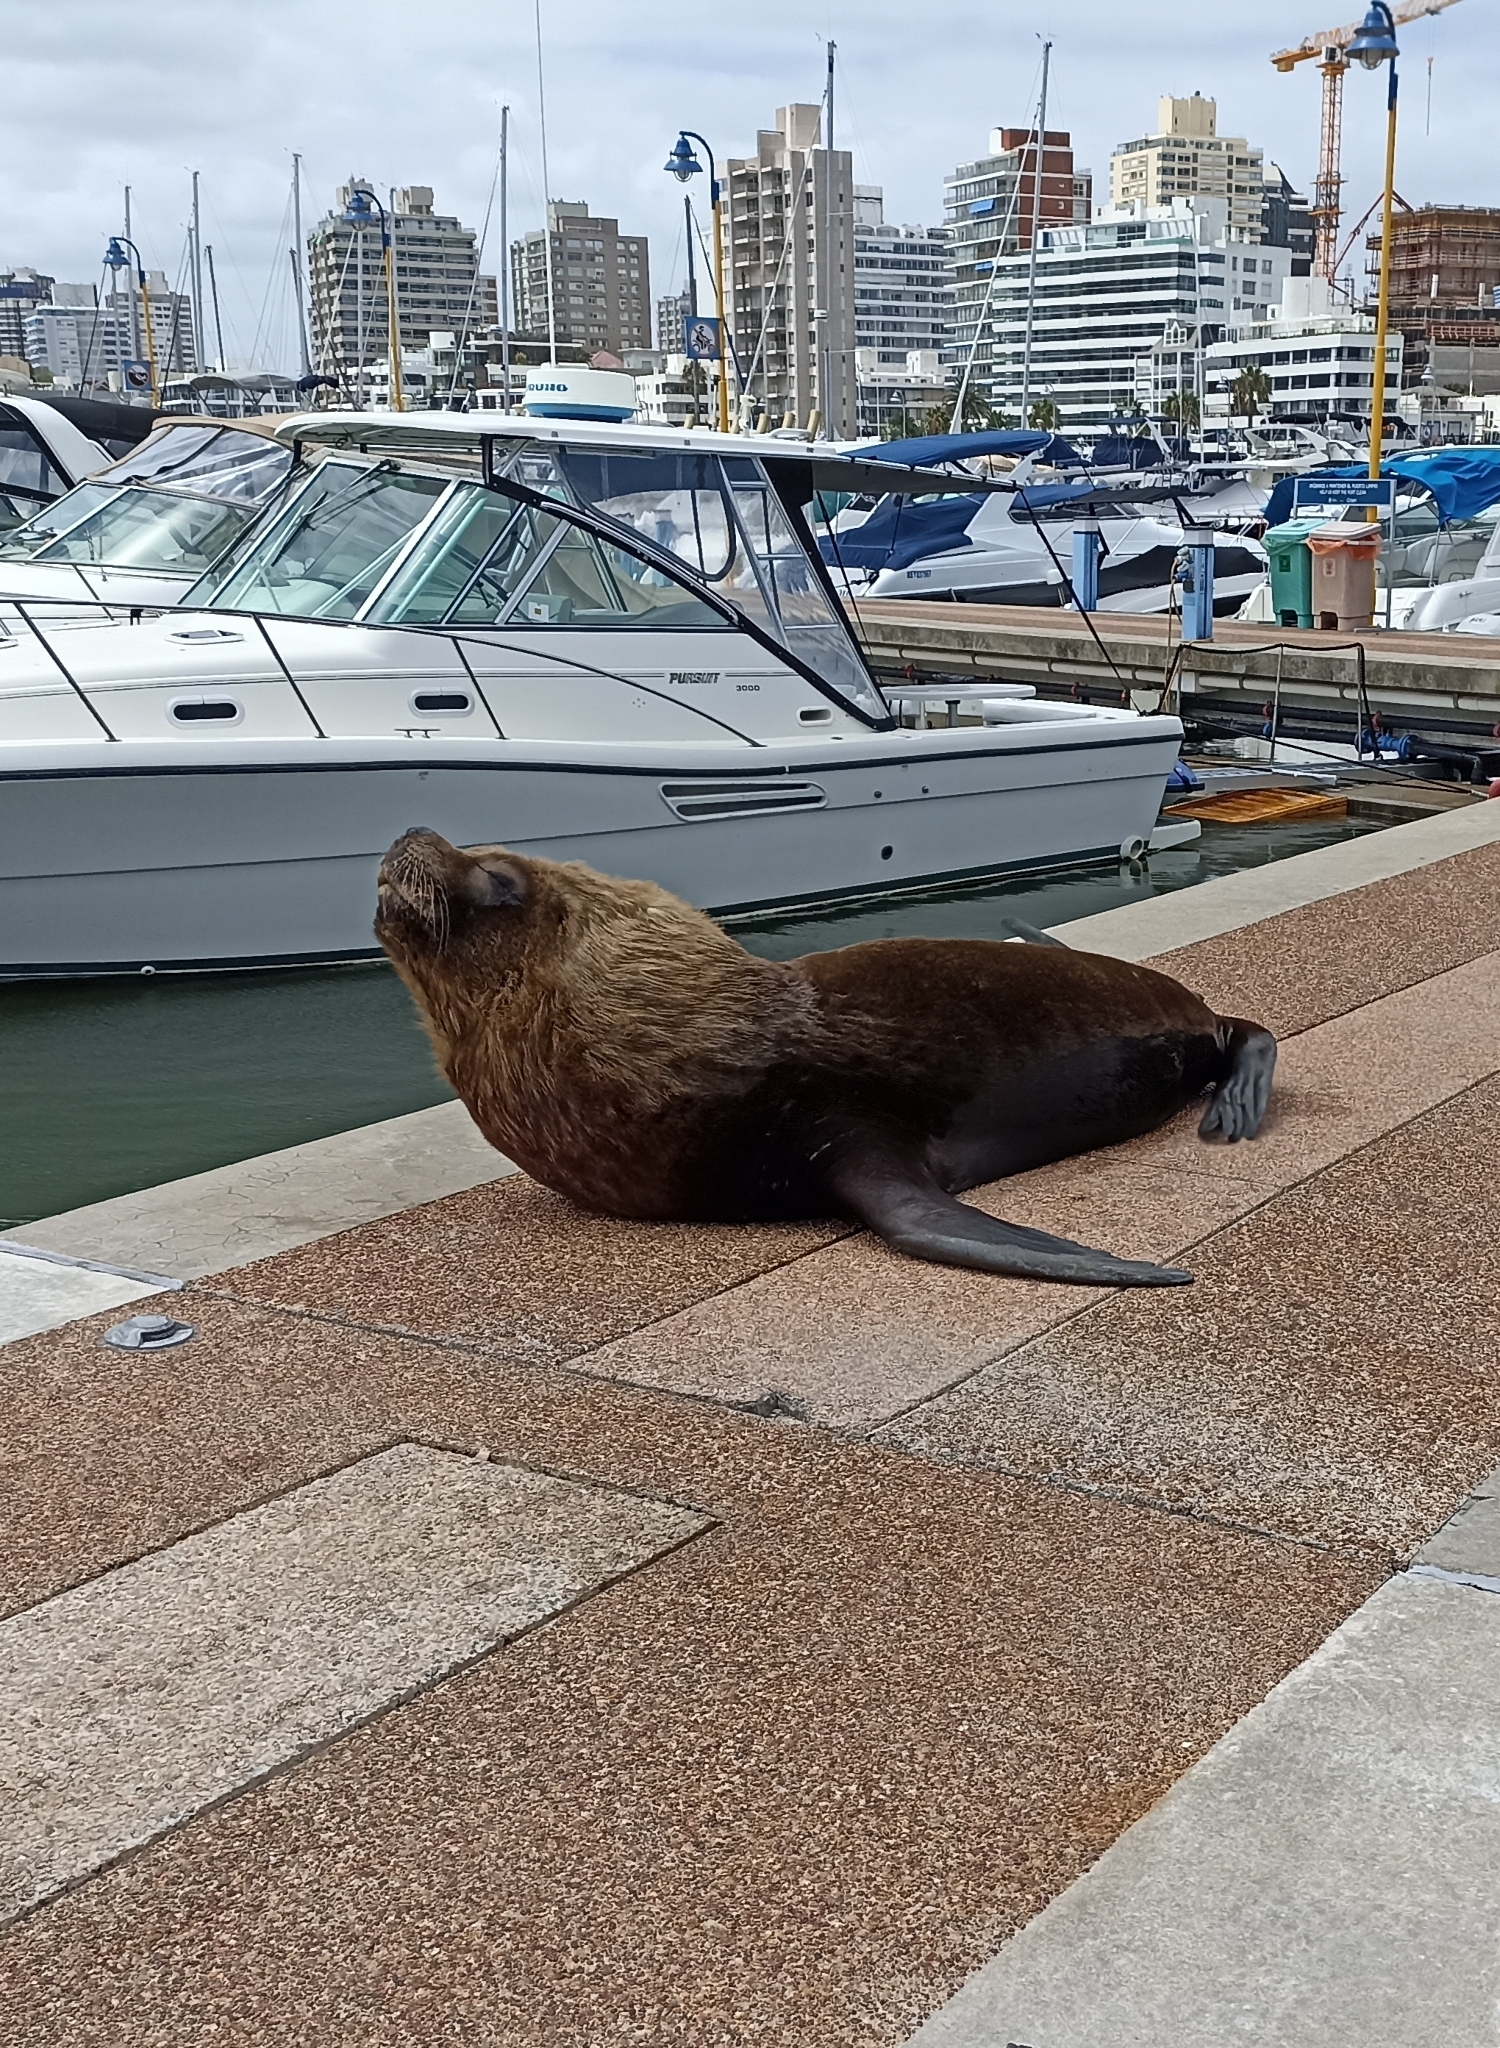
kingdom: Animalia
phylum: Chordata
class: Mammalia
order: Carnivora
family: Otariidae
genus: Otaria
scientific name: Otaria byronia
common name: South american sea lion
